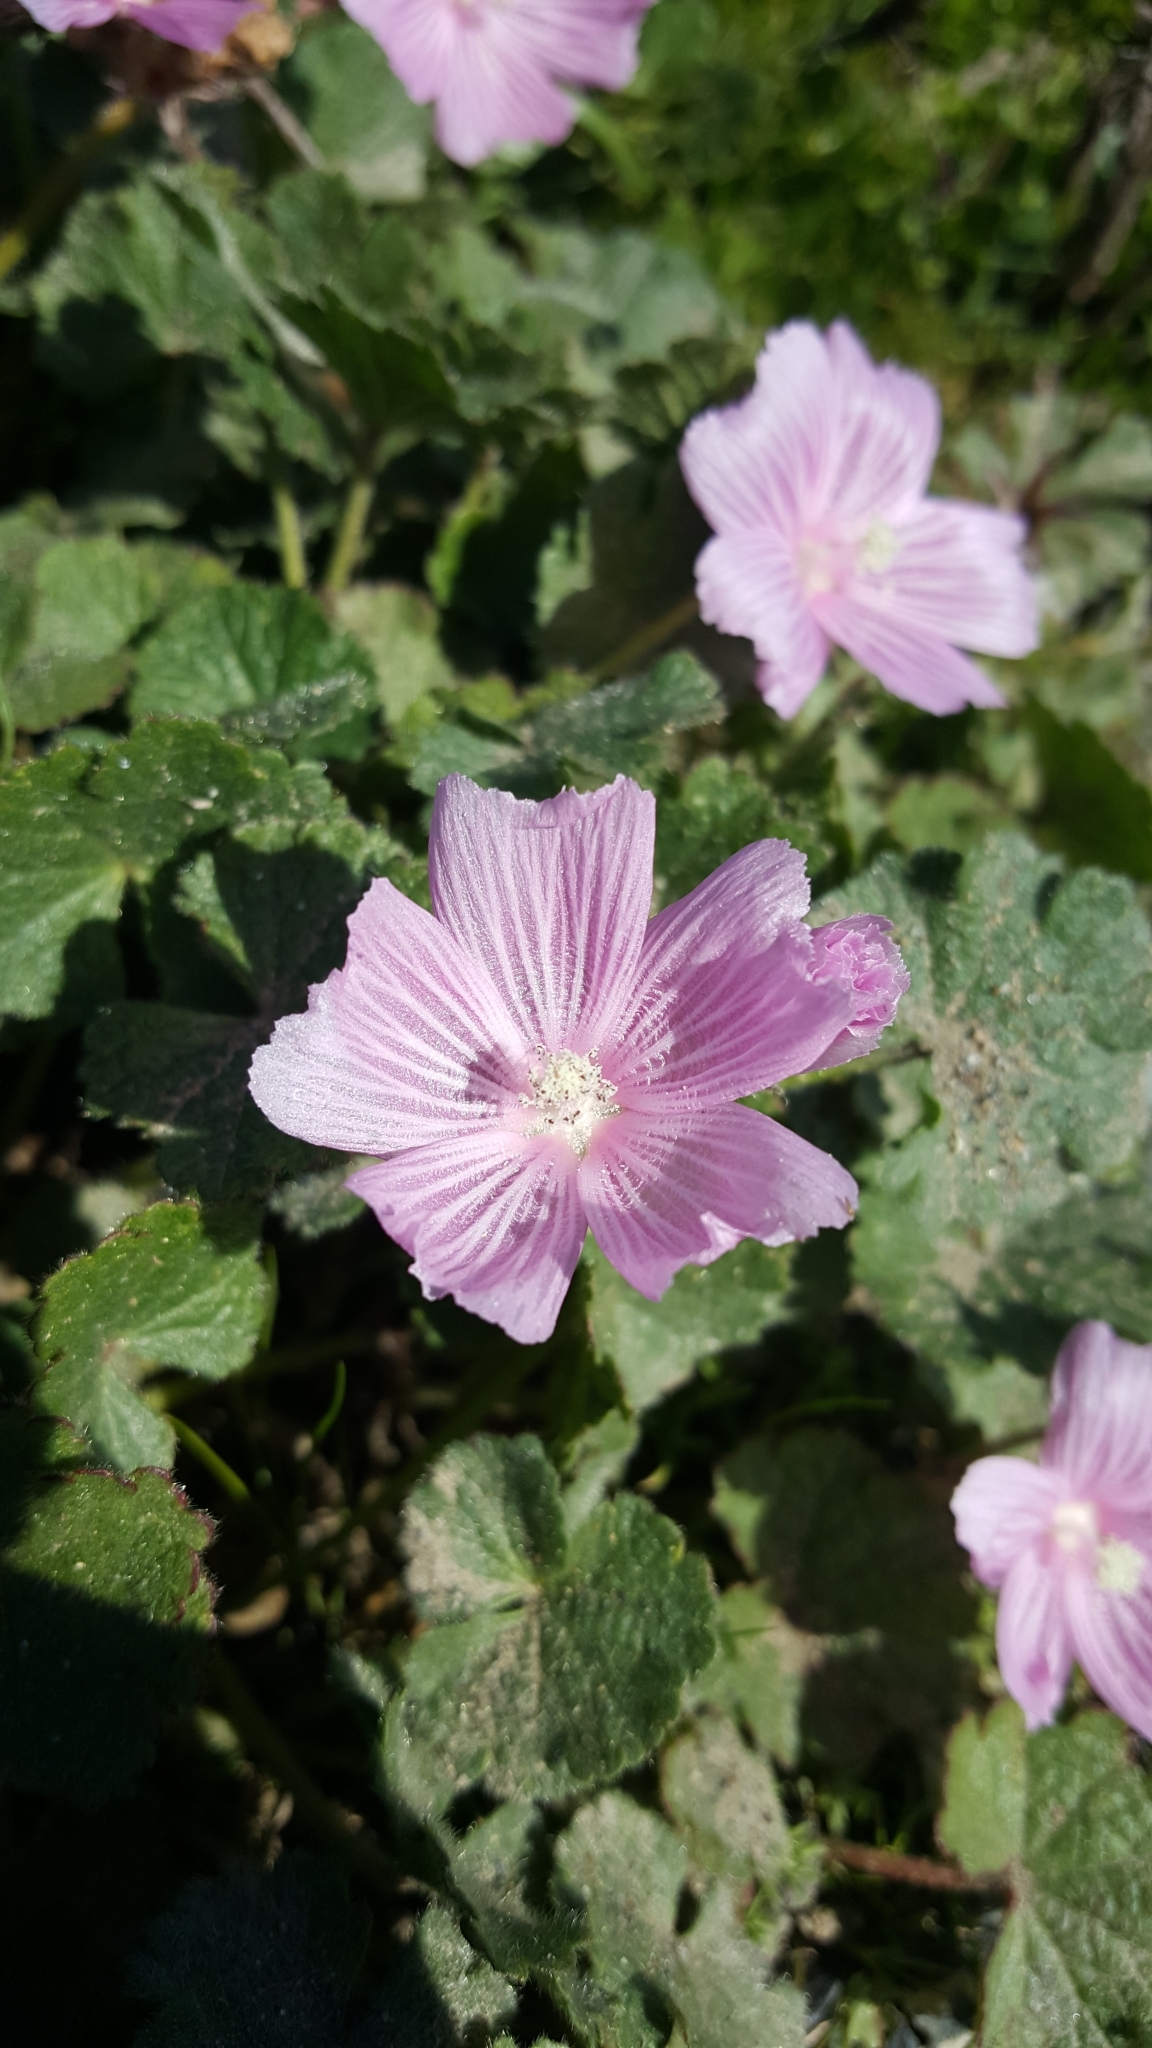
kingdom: Plantae
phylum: Tracheophyta
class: Magnoliopsida
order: Malvales
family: Malvaceae
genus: Sidalcea
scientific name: Sidalcea malviflora
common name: Greek mallow
